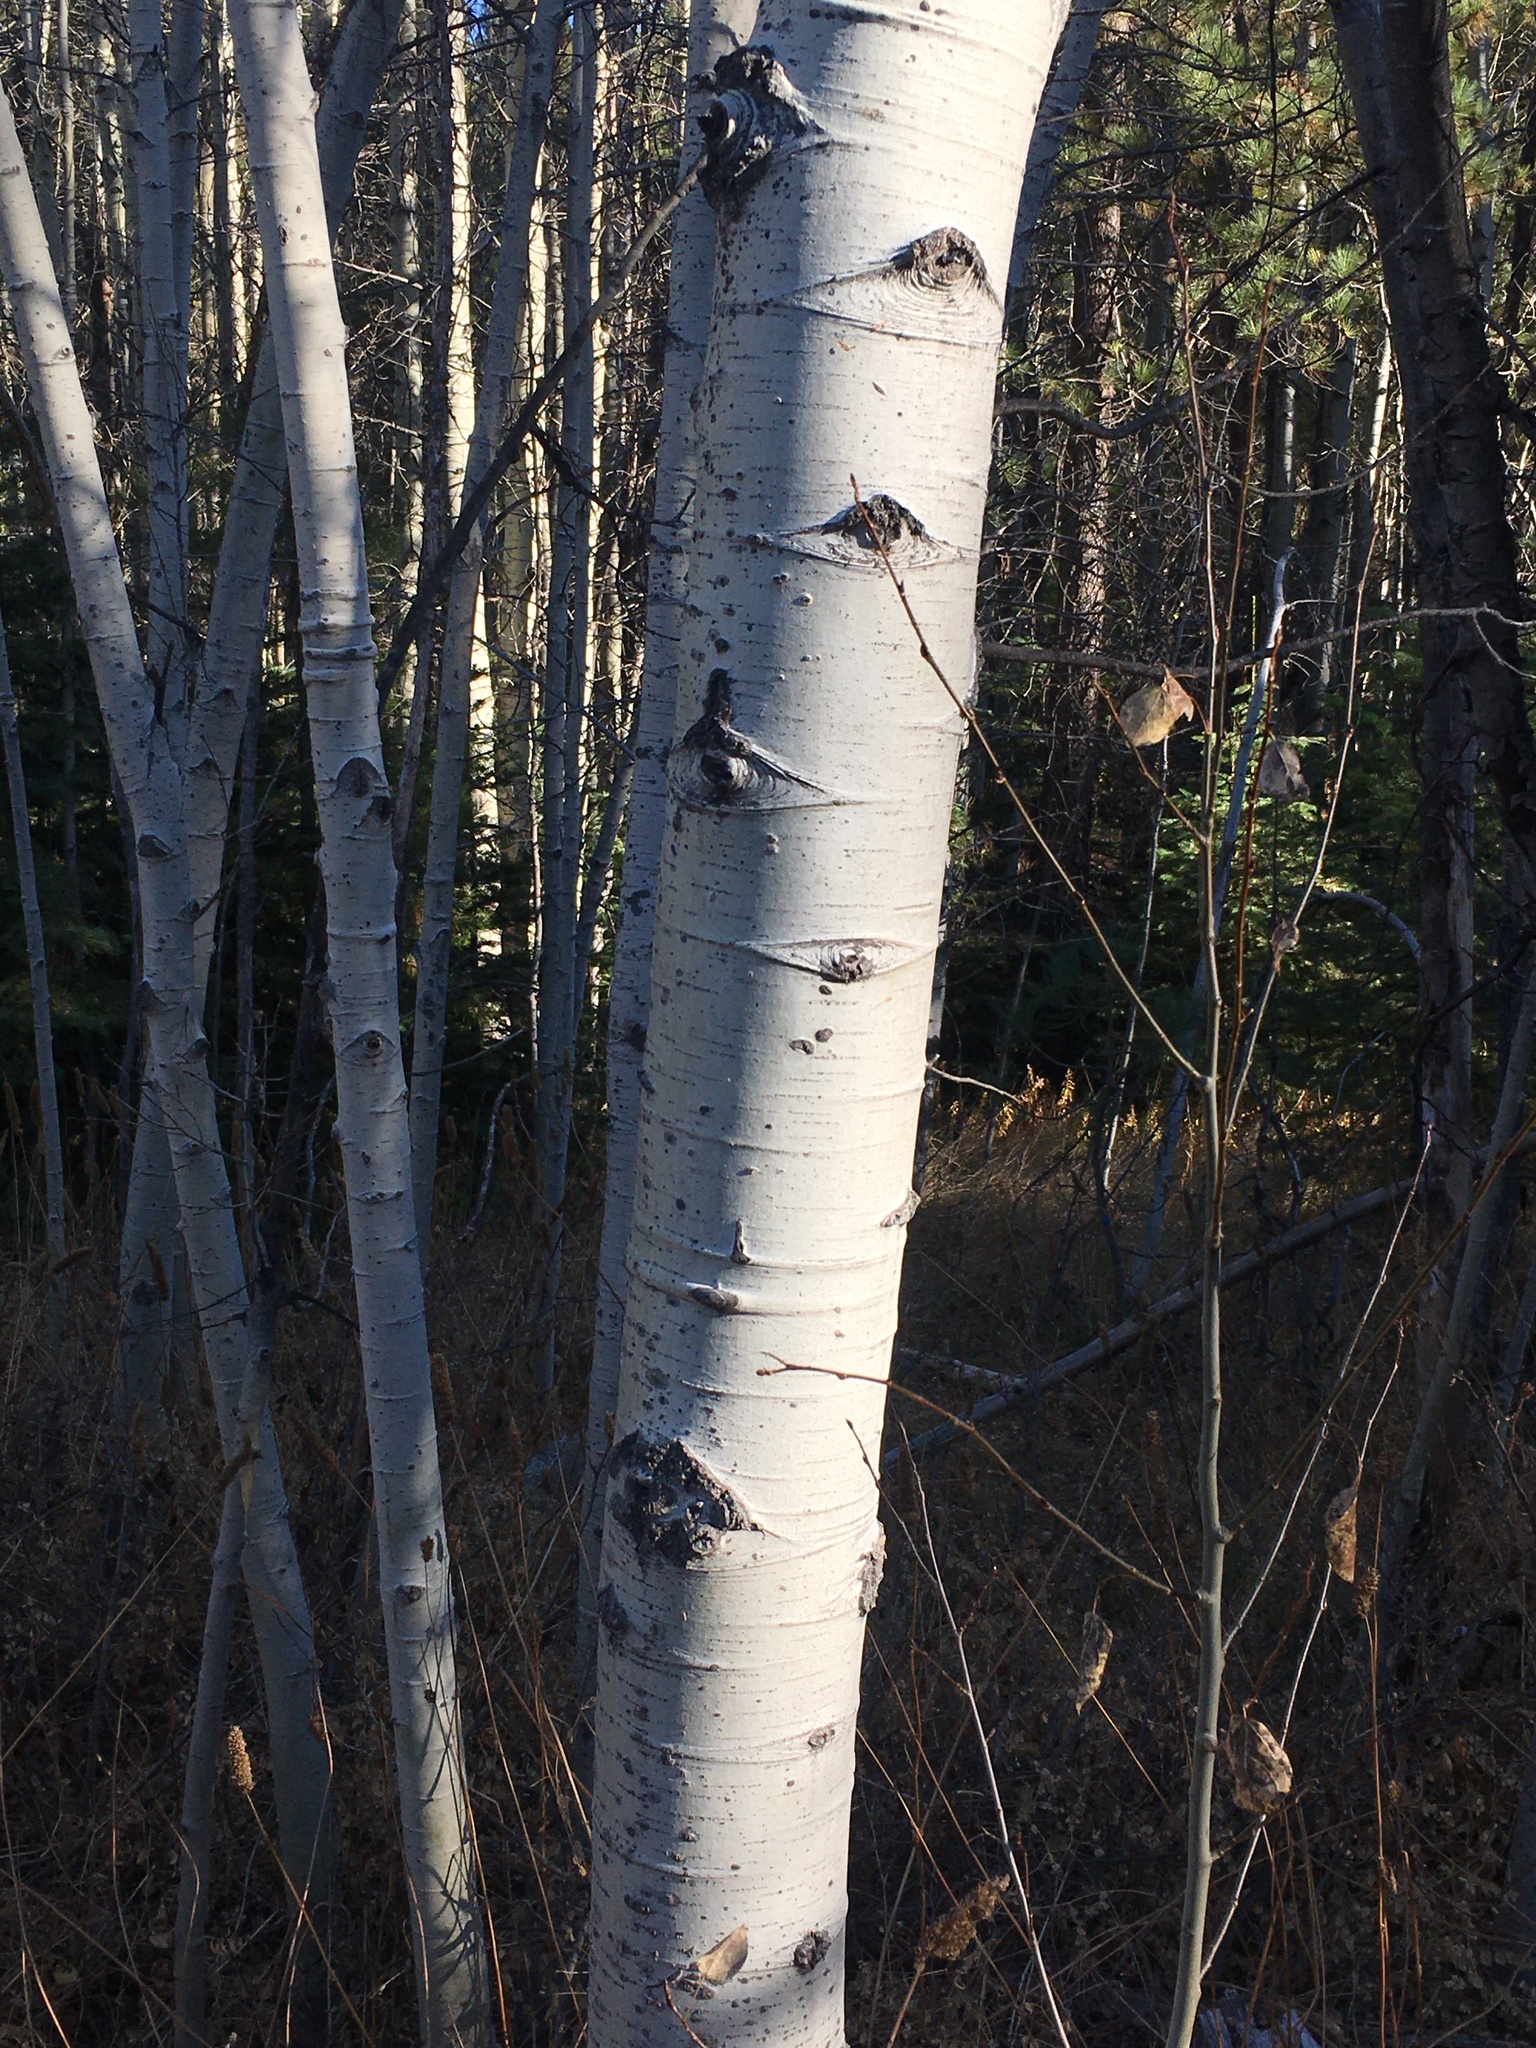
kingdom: Plantae
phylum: Tracheophyta
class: Magnoliopsida
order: Malpighiales
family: Salicaceae
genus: Populus
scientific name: Populus tremuloides
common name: Quaking aspen
